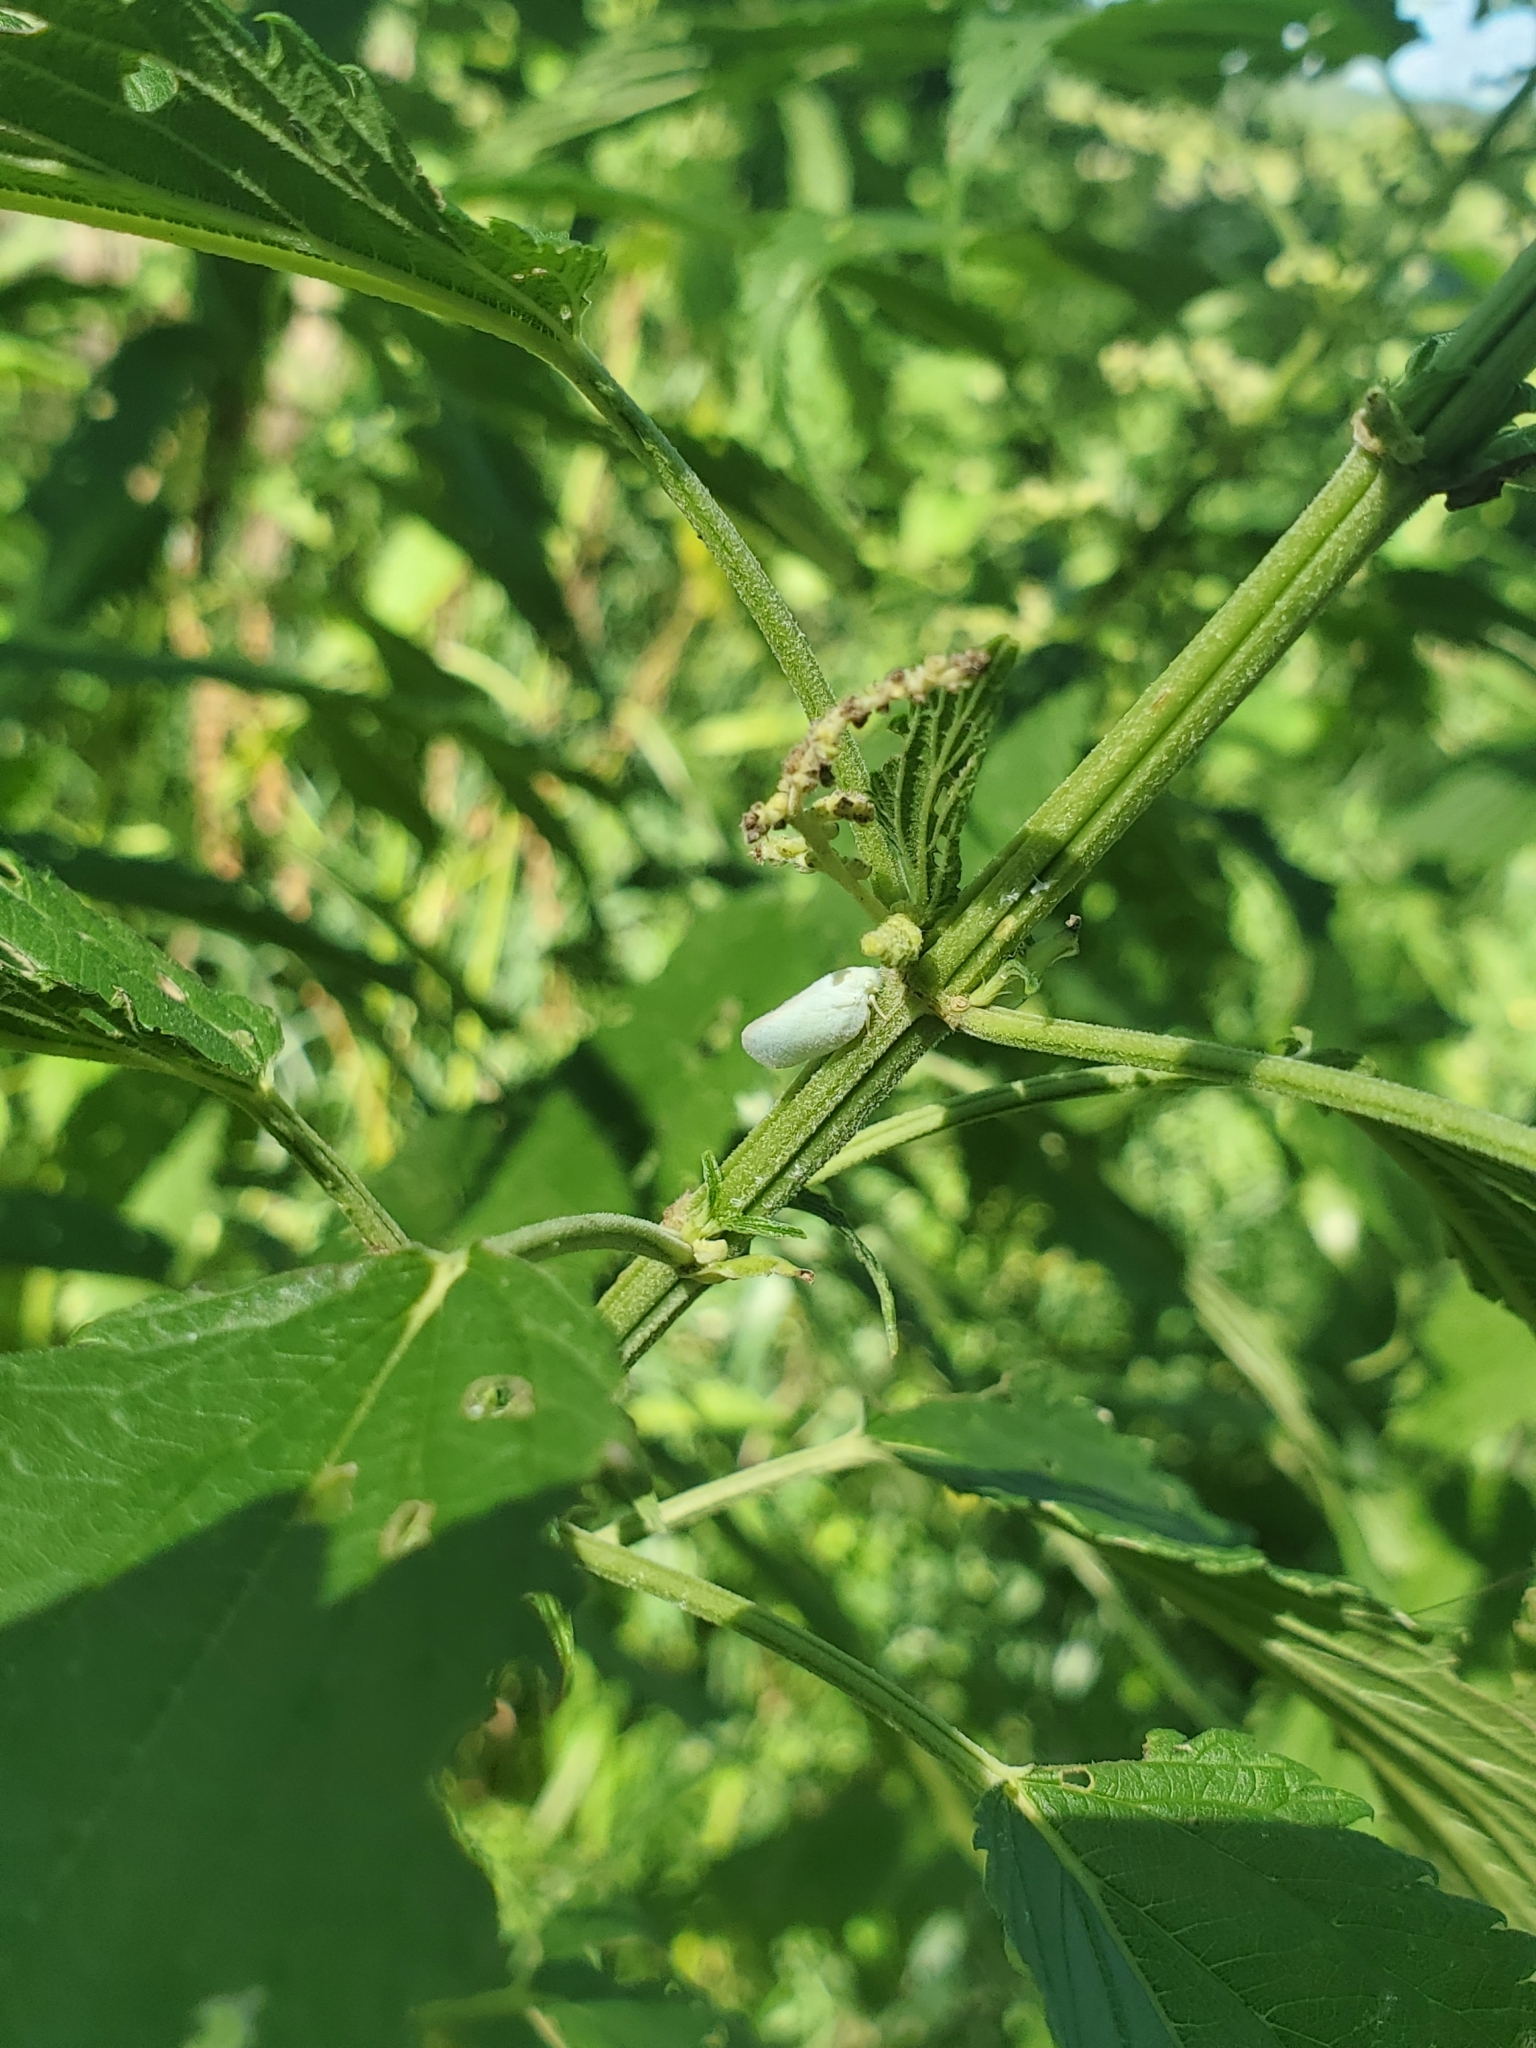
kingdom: Animalia
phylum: Arthropoda
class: Insecta
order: Hemiptera
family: Flatidae
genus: Ormenoides
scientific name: Ormenoides venusta
